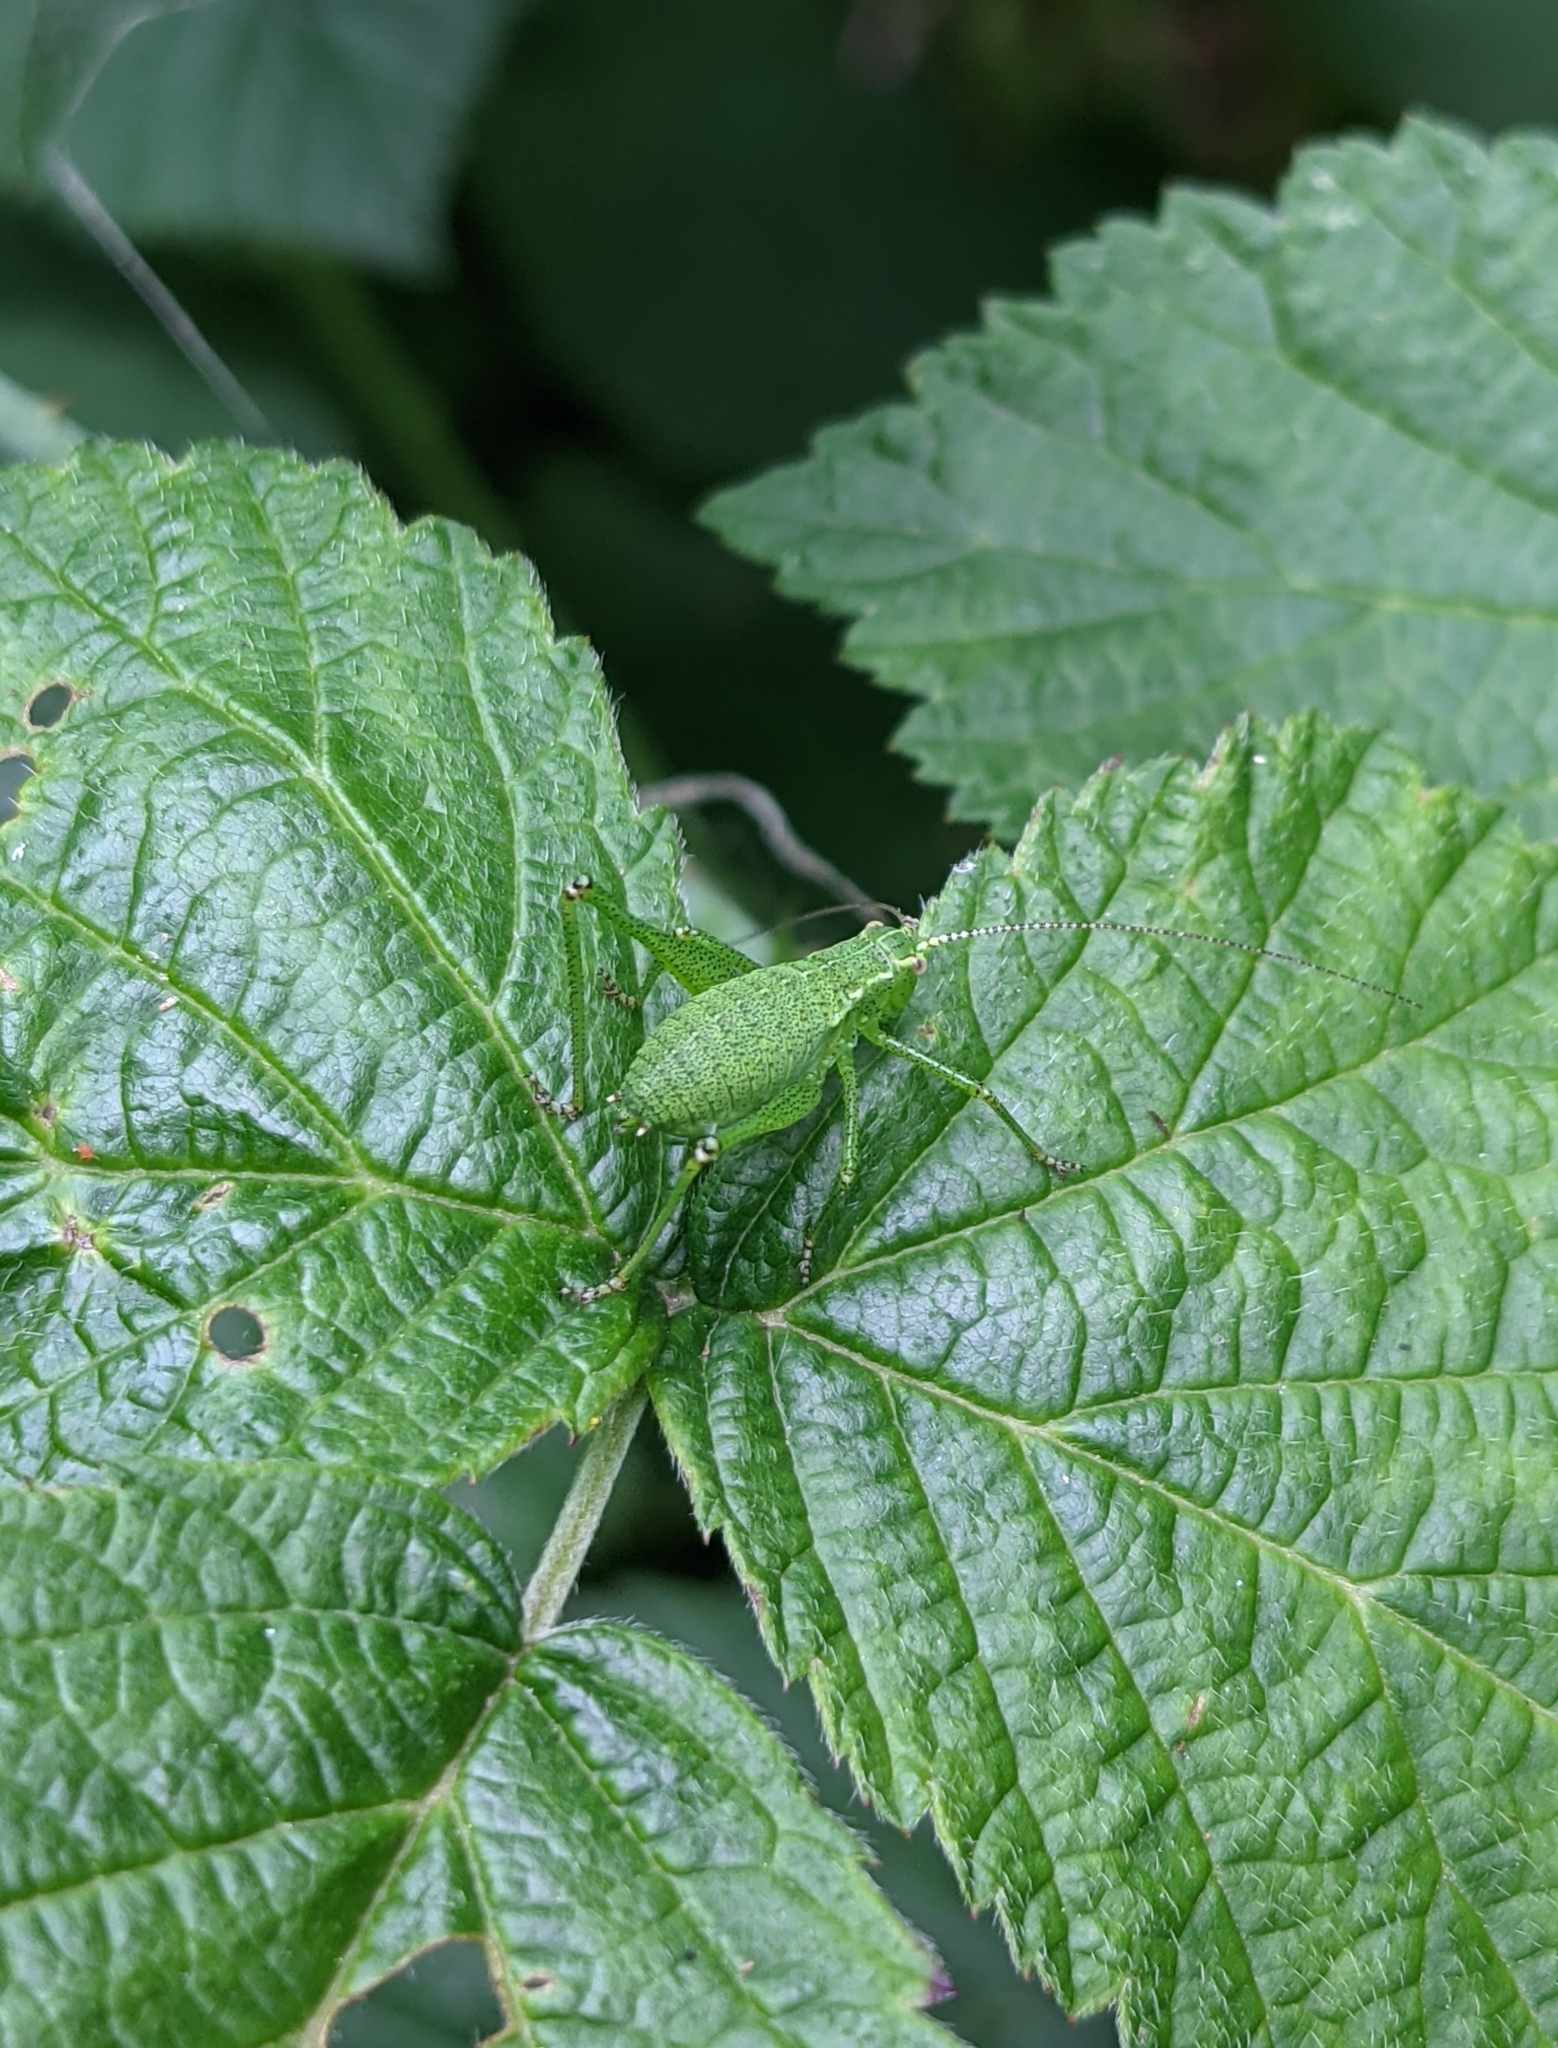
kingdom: Animalia
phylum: Arthropoda
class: Insecta
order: Orthoptera
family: Tettigoniidae
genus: Barbitistes
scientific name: Barbitistes serricauda
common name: Saw-tailed bush-cricket
